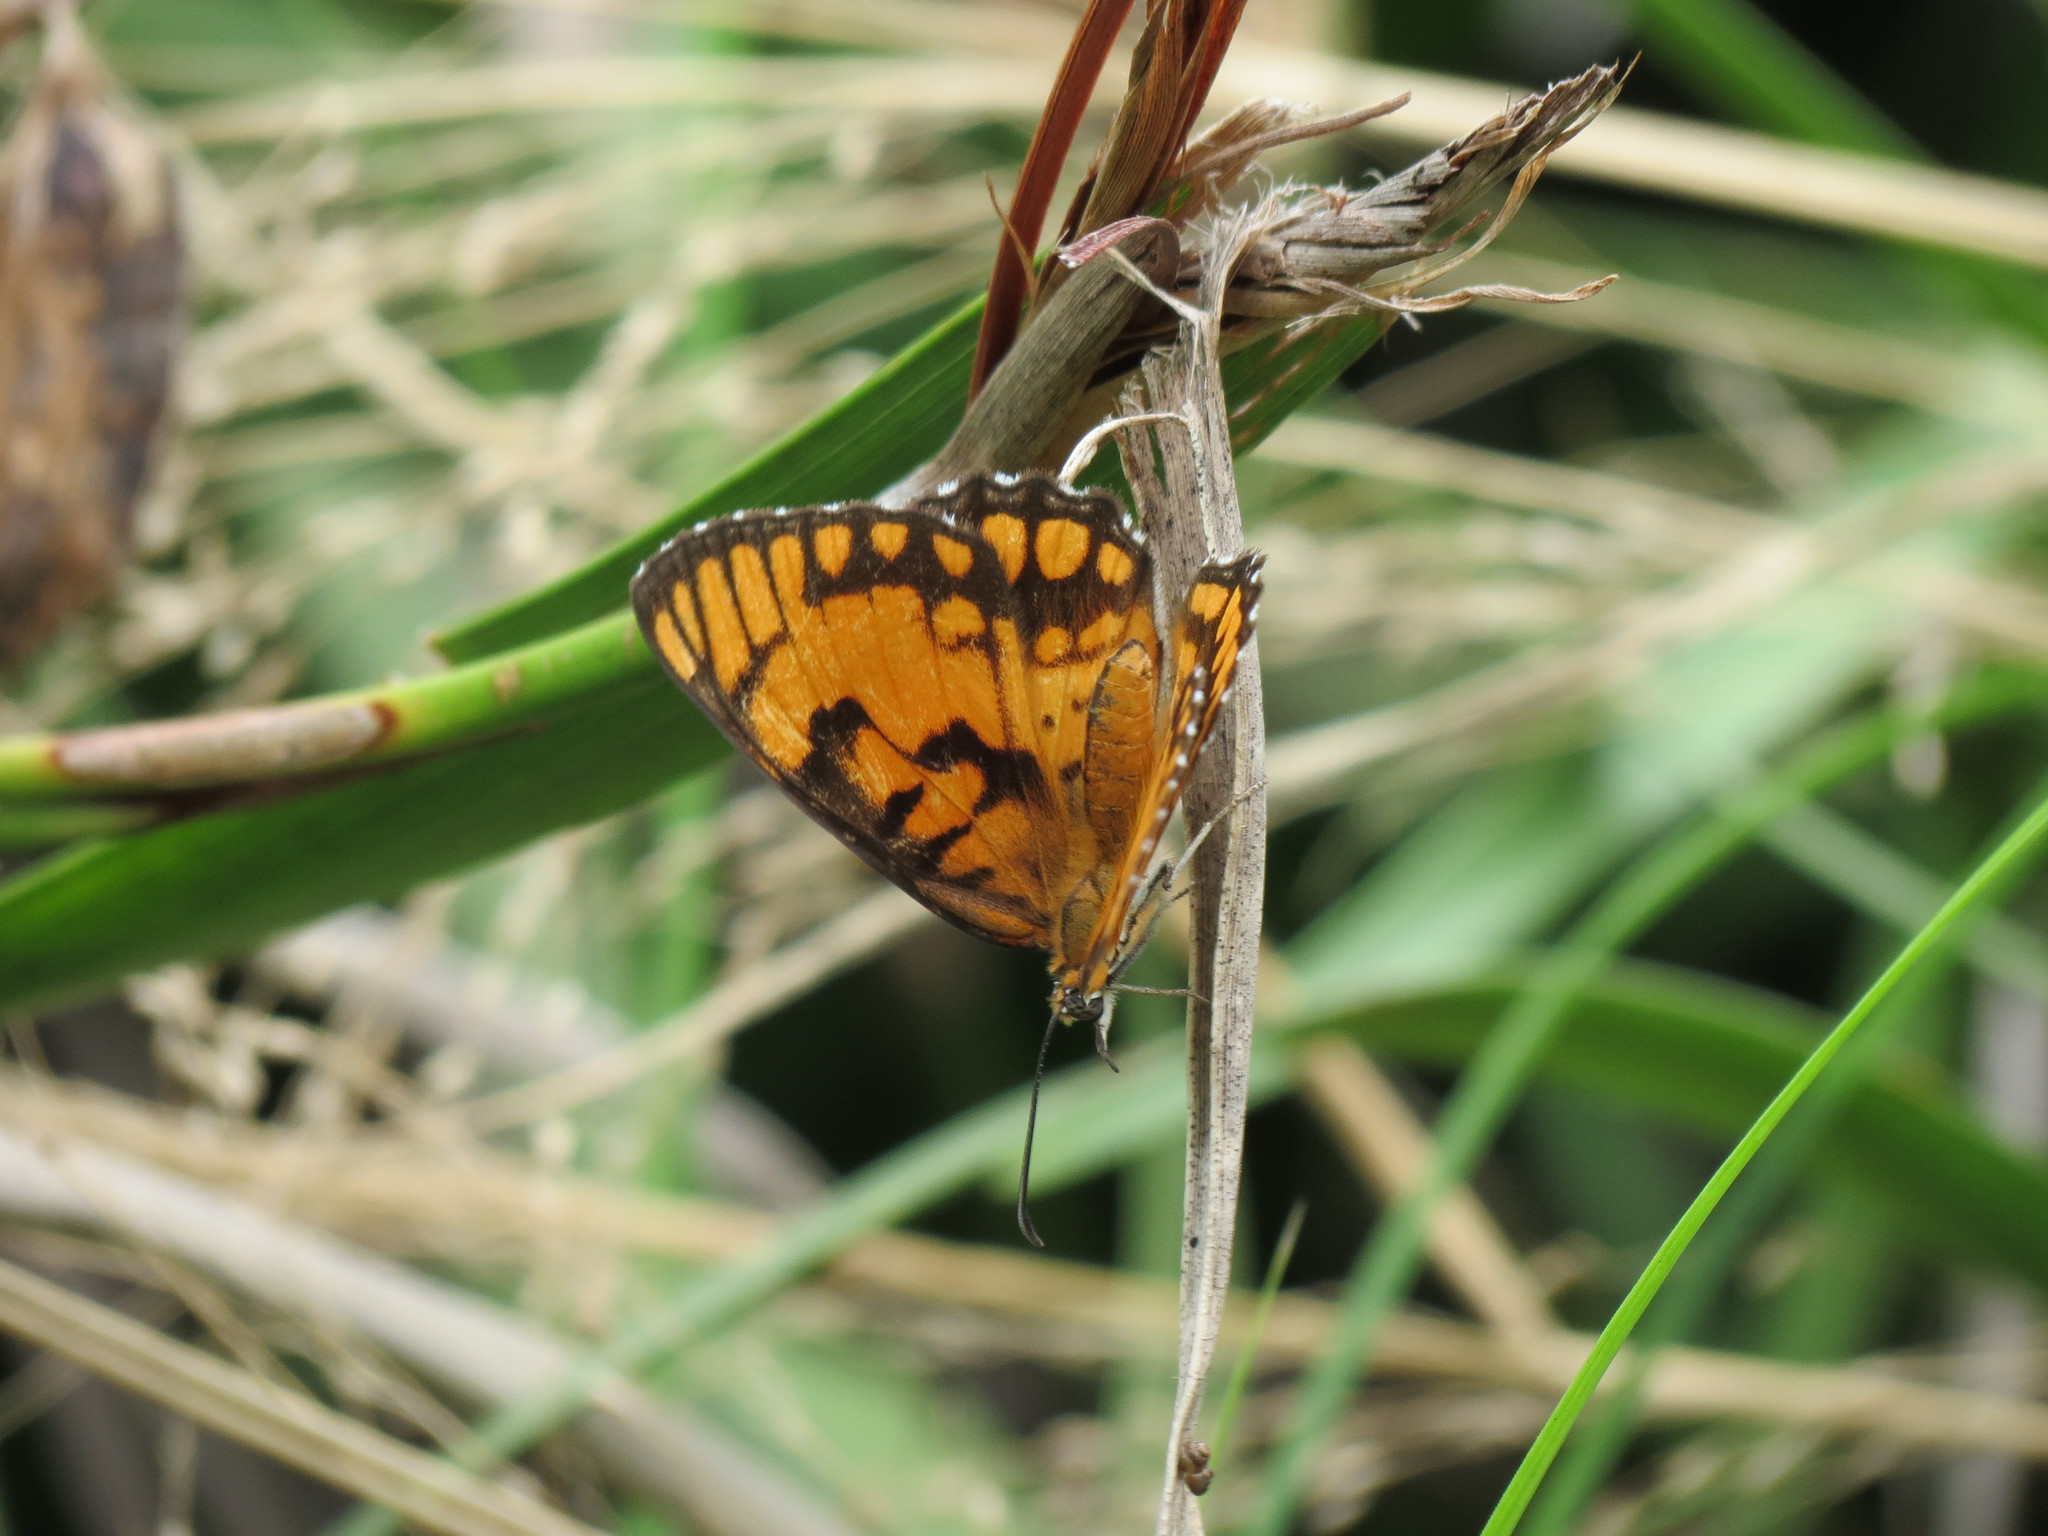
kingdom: Animalia
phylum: Arthropoda
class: Insecta
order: Lepidoptera
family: Nymphalidae
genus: Byblia
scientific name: Byblia ilithyia
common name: Spotted joker
